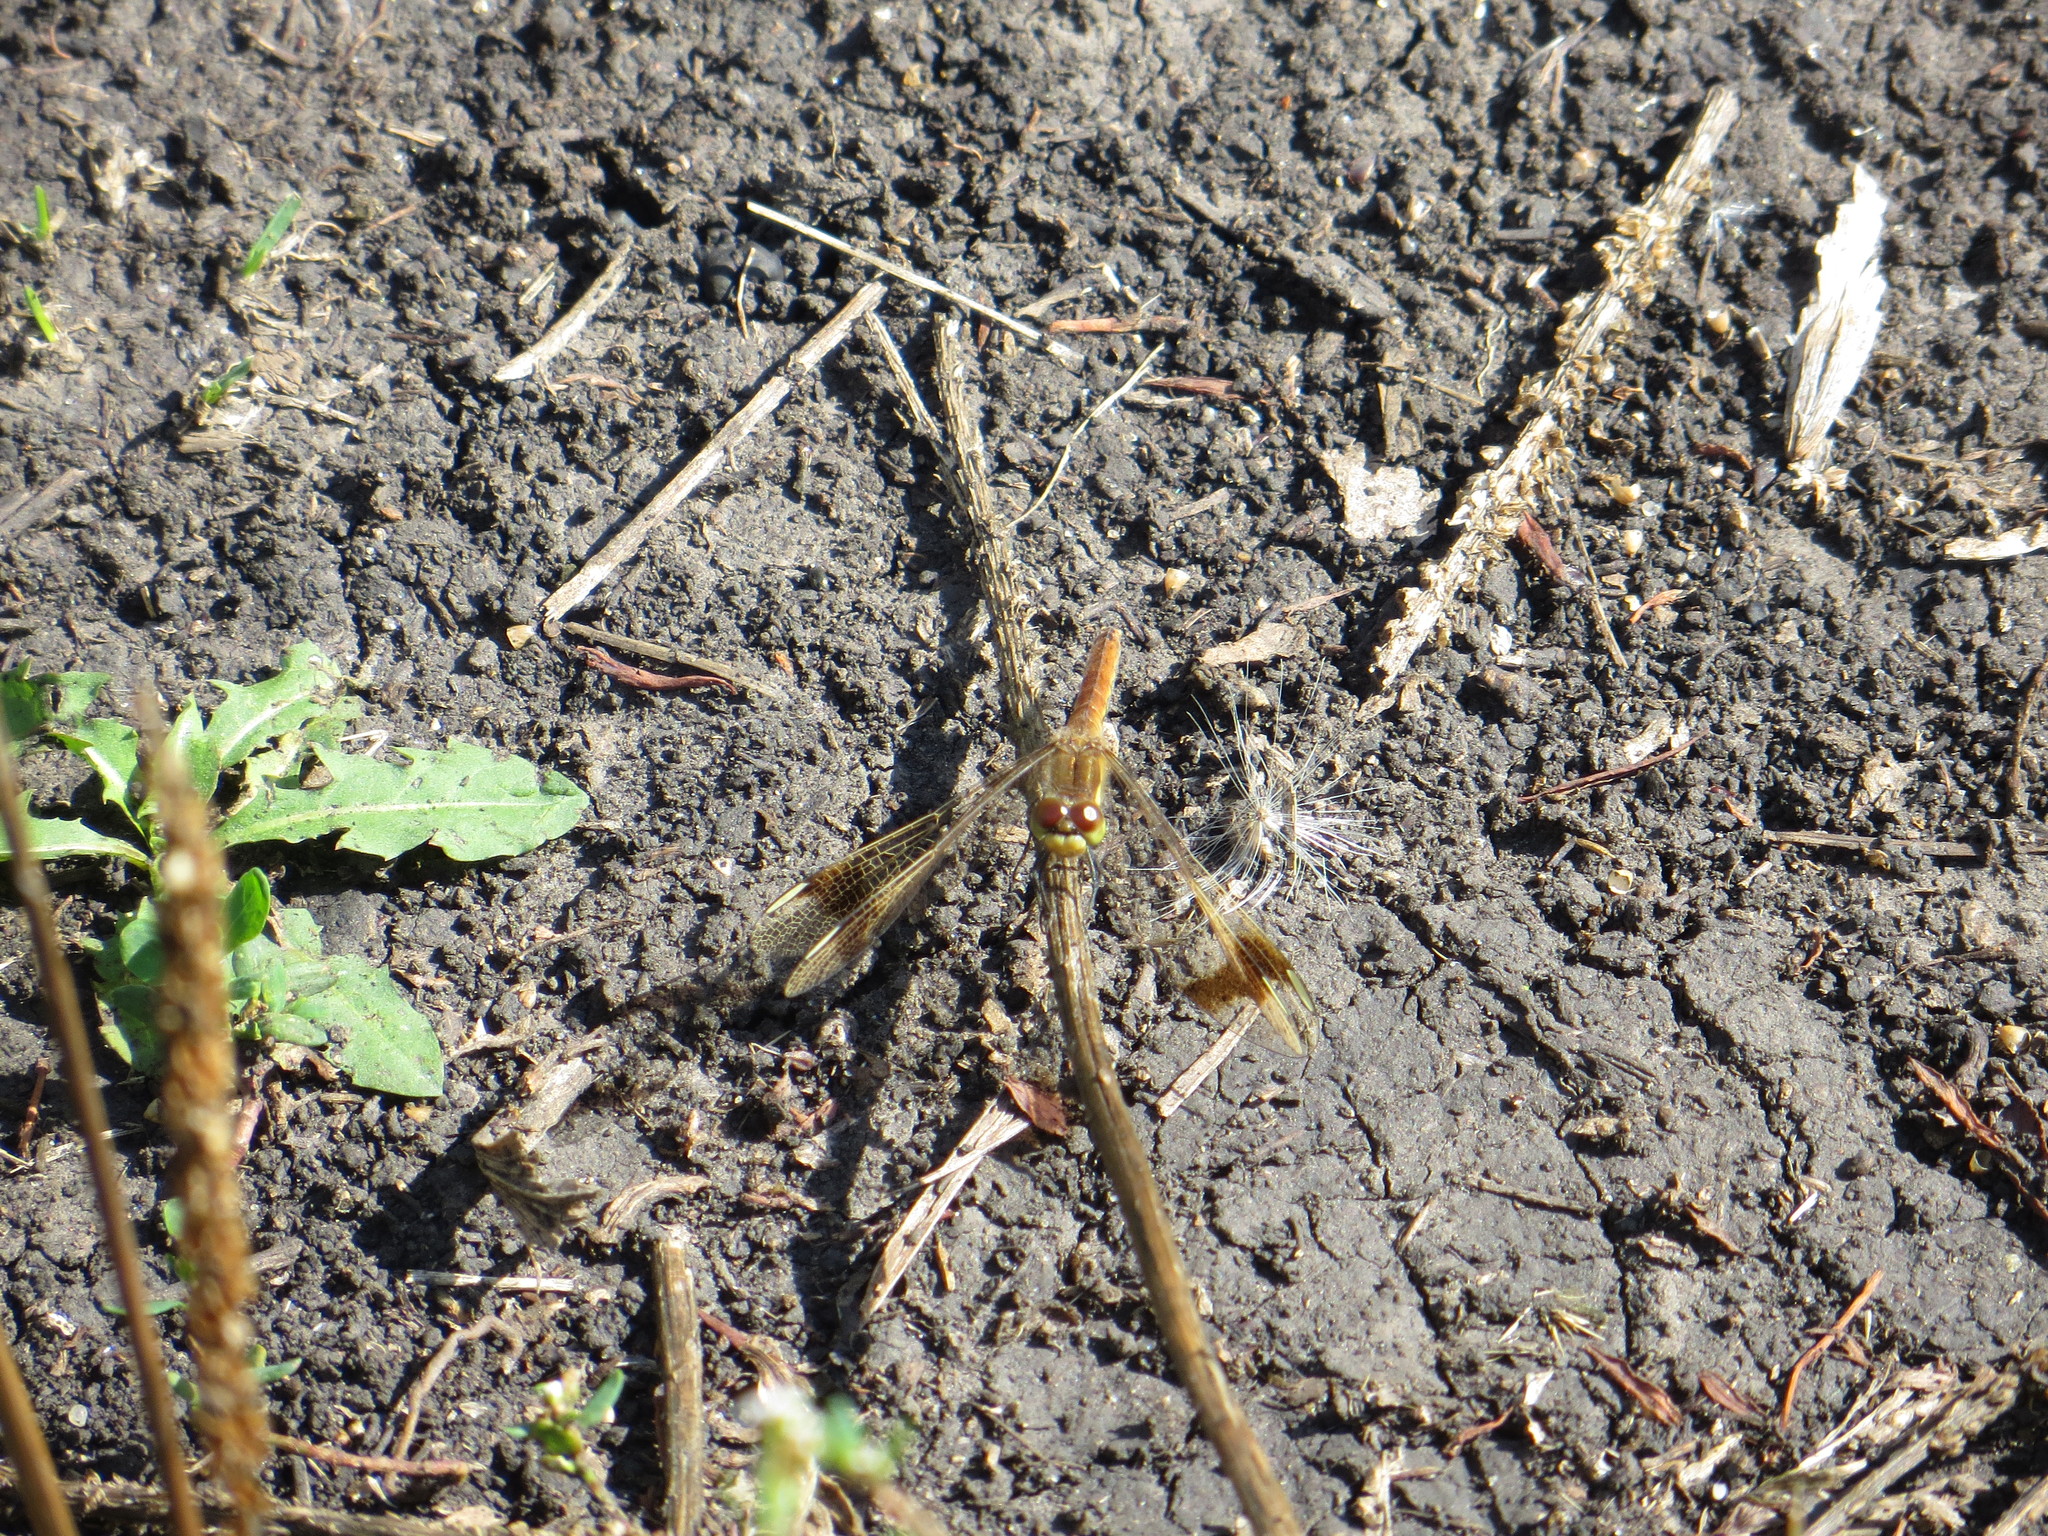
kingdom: Animalia
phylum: Arthropoda
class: Insecta
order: Odonata
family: Libellulidae
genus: Sympetrum
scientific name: Sympetrum pedemontanum
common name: Banded darter
